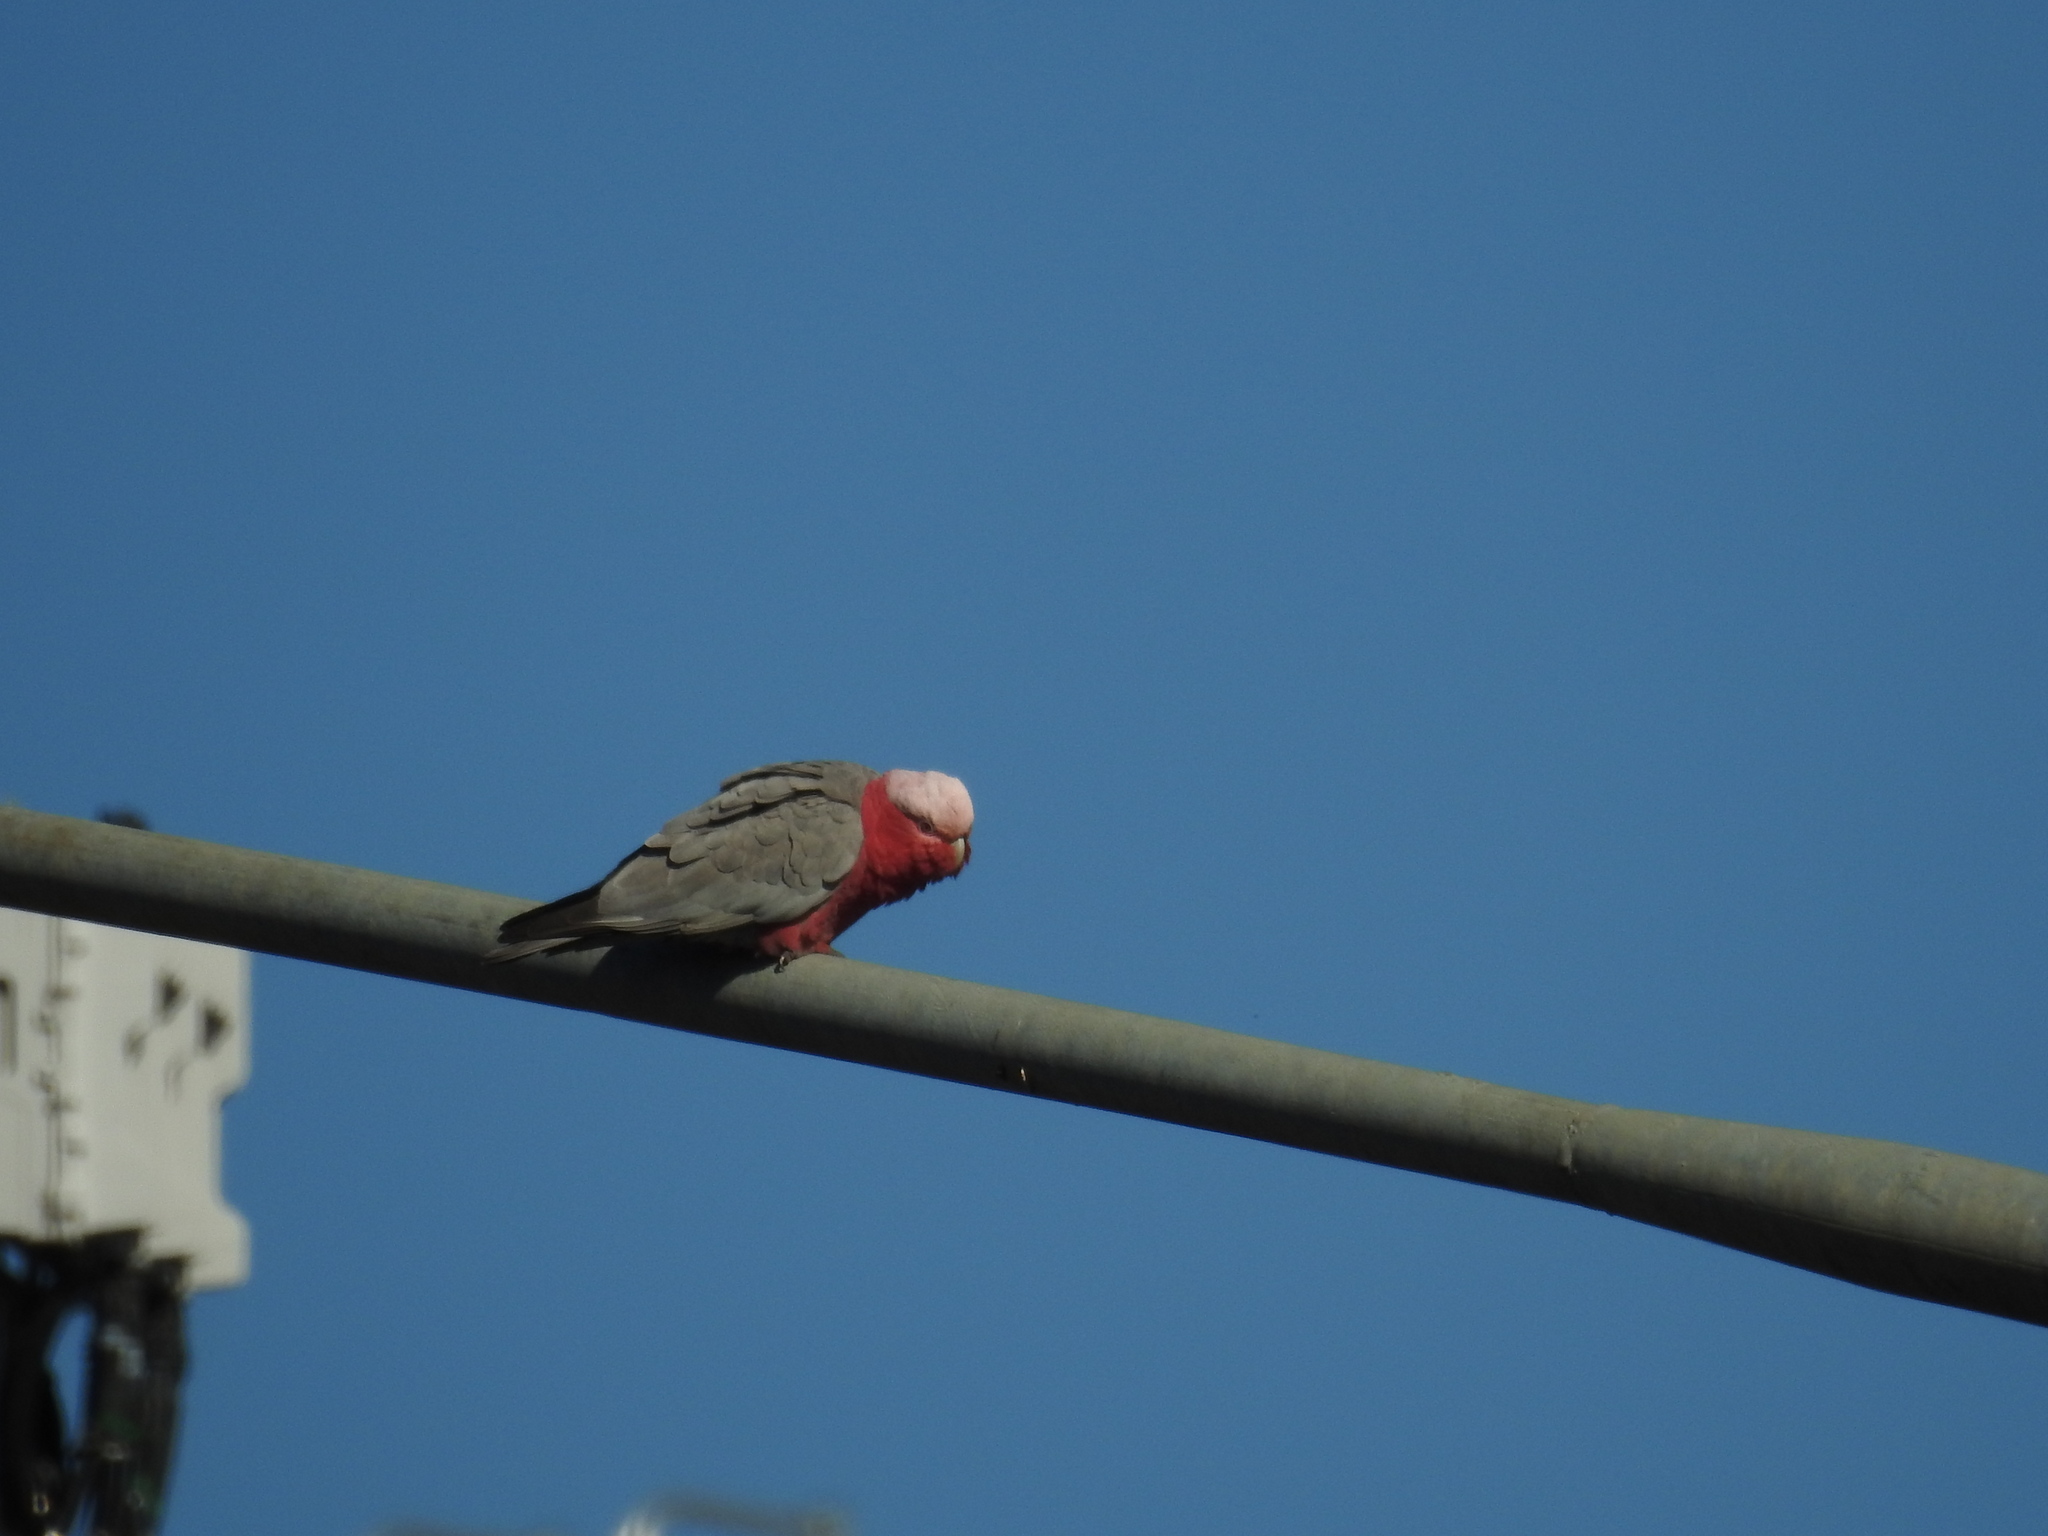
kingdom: Animalia
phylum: Chordata
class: Aves
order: Psittaciformes
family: Psittacidae
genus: Eolophus
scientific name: Eolophus roseicapilla
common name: Galah
